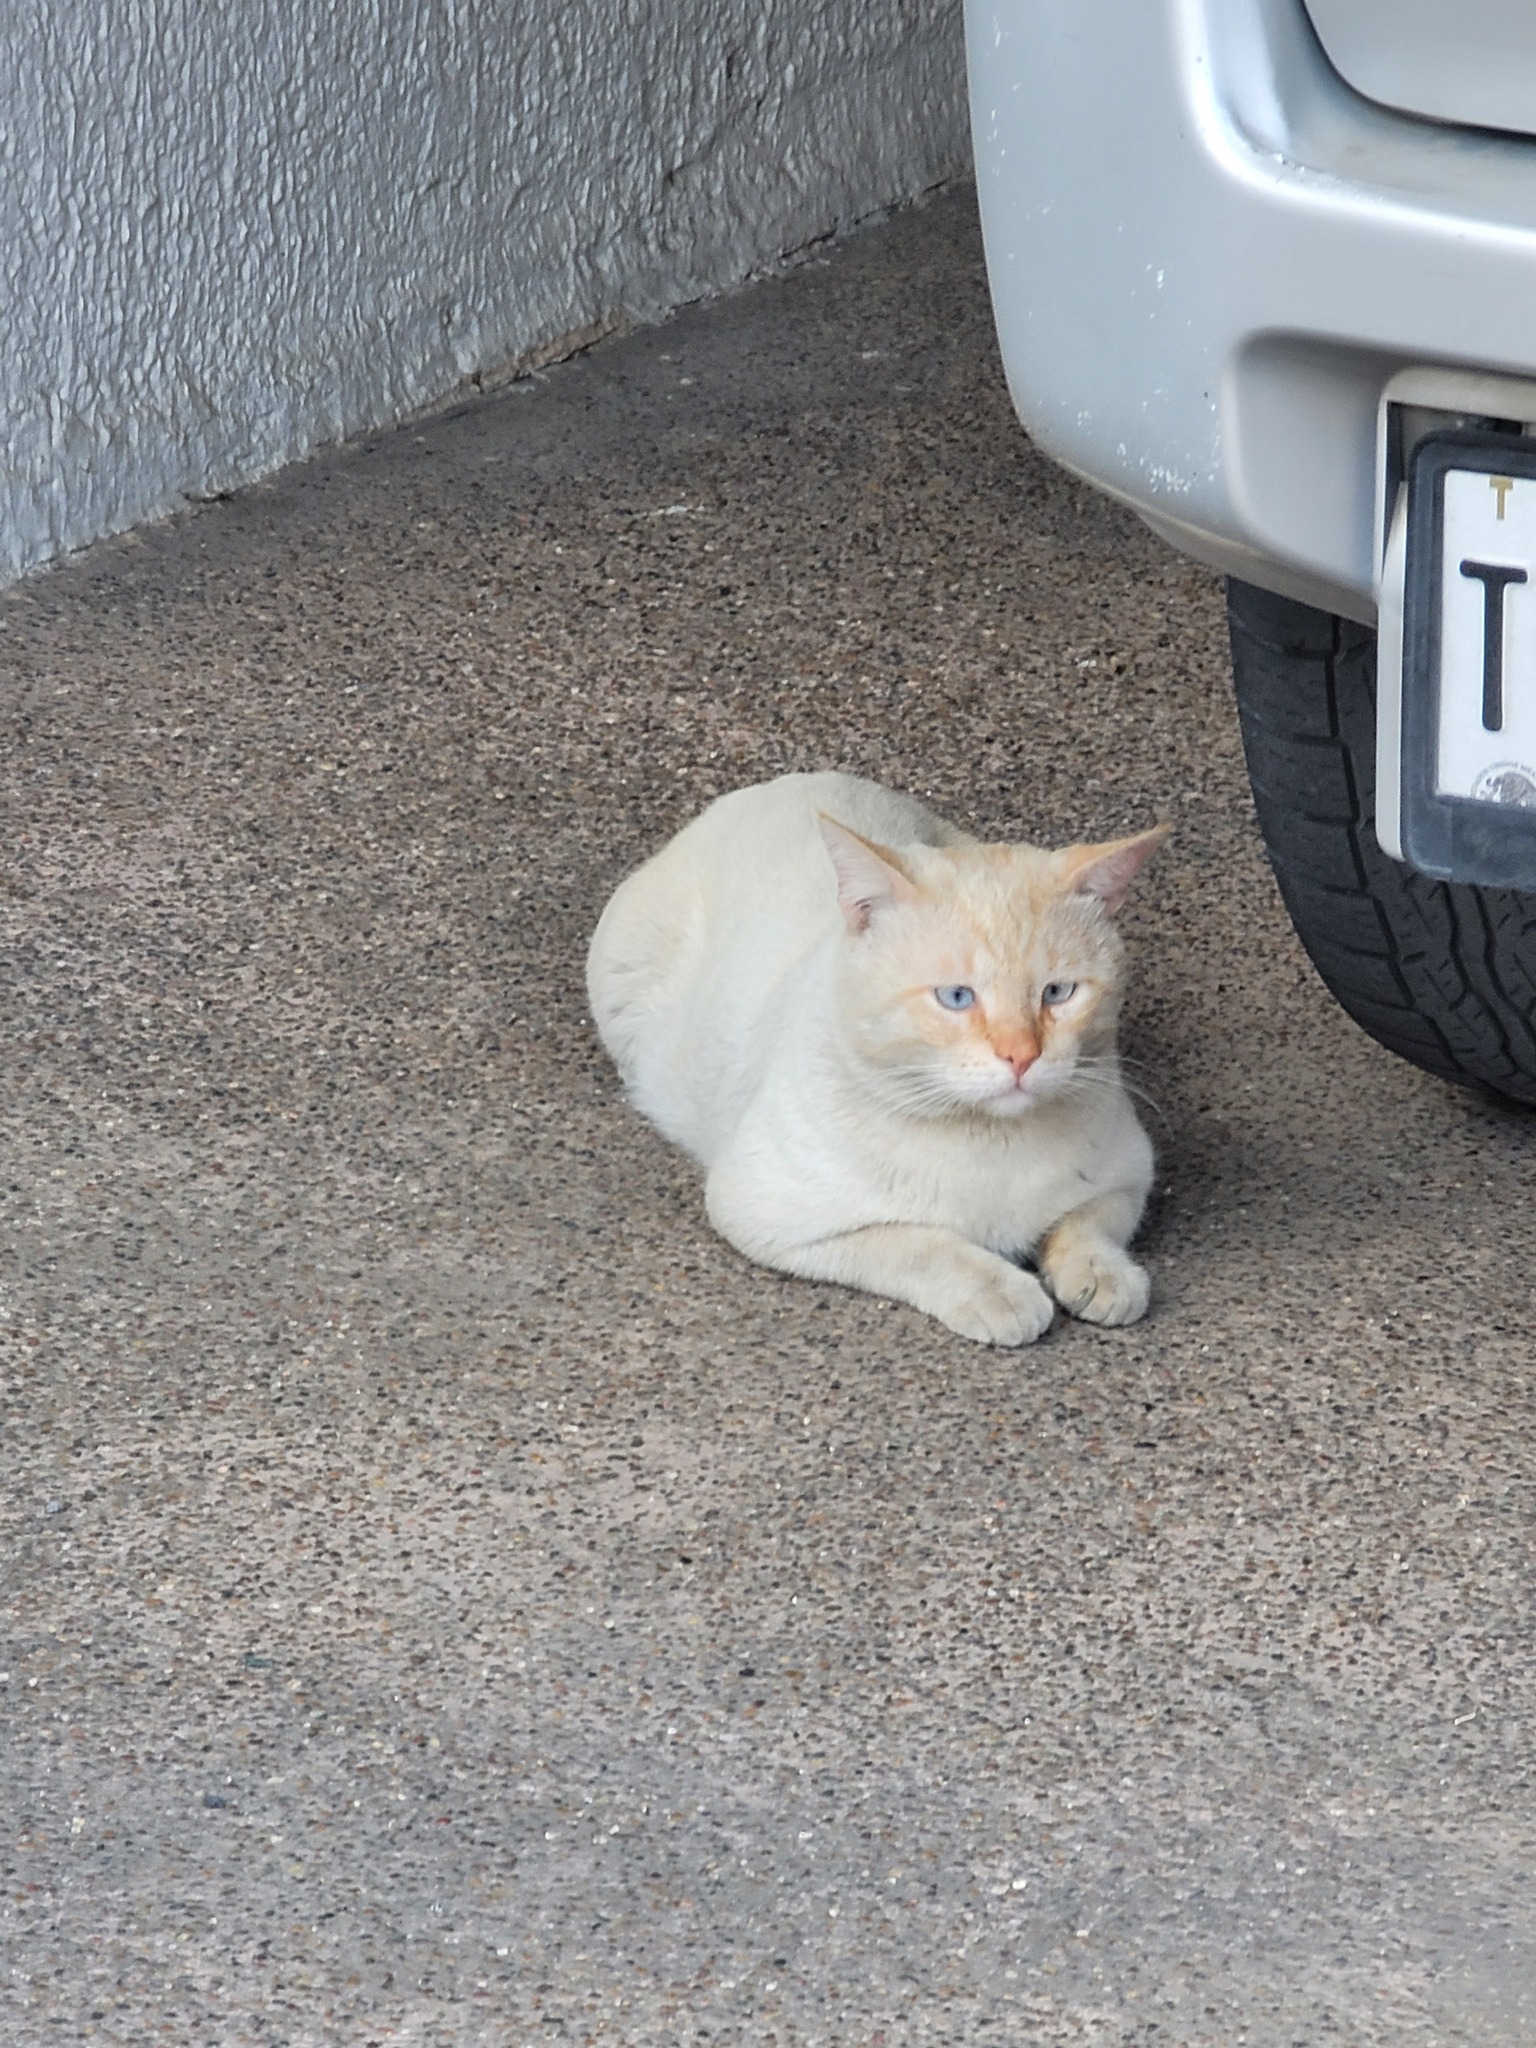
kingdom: Animalia
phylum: Chordata
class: Mammalia
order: Carnivora
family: Felidae
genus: Felis
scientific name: Felis catus
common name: Domestic cat
